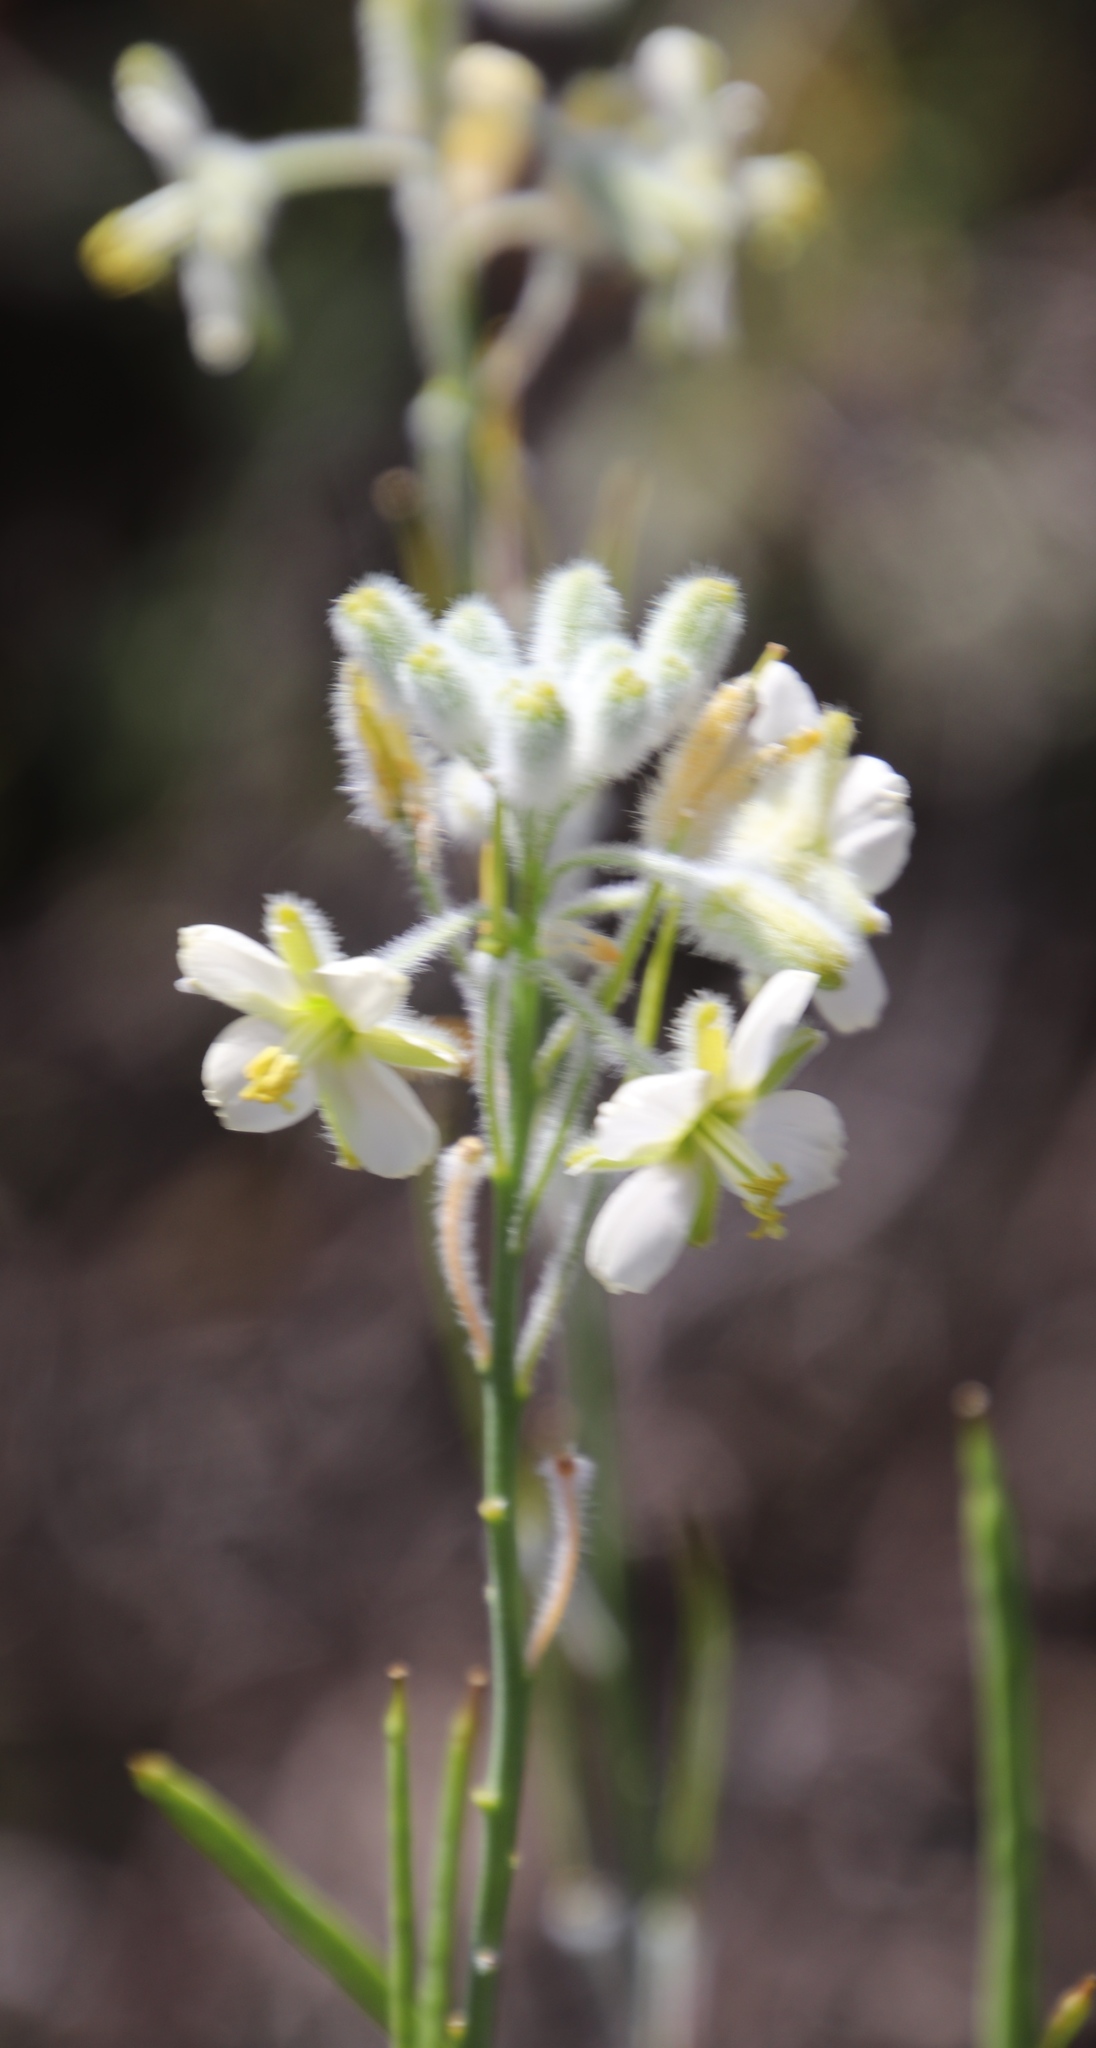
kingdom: Plantae
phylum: Tracheophyta
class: Magnoliopsida
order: Brassicales
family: Brassicaceae
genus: Heliophila
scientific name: Heliophila linearis
